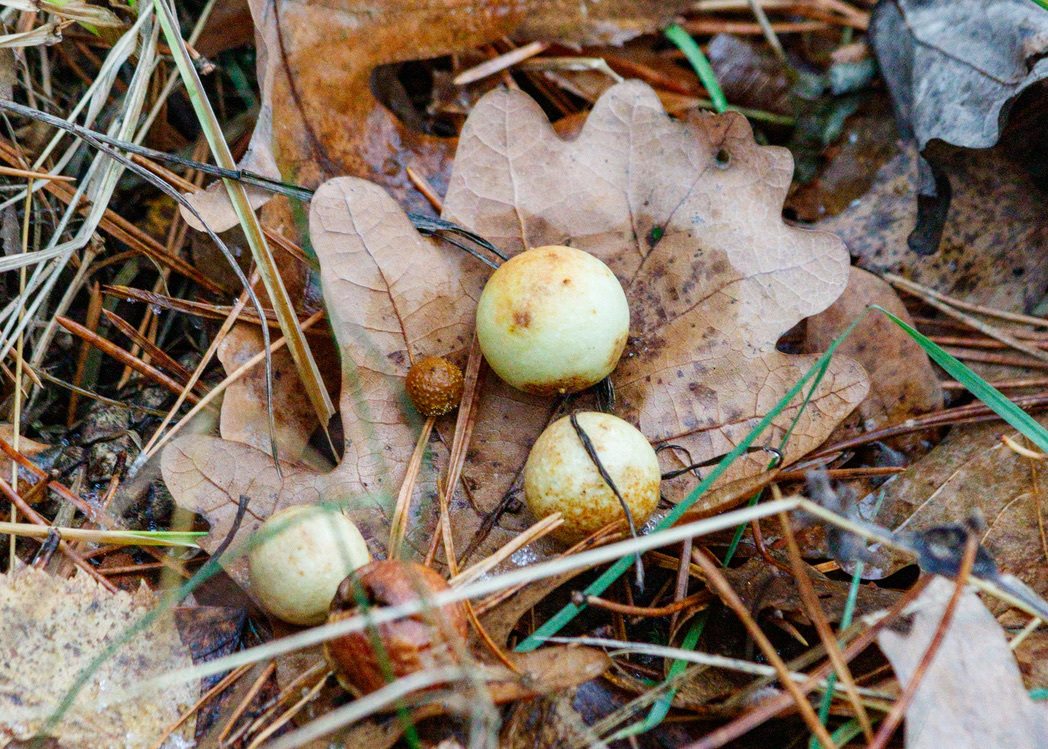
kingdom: Animalia
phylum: Arthropoda
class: Insecta
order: Hymenoptera
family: Cynipidae
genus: Cynips
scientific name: Cynips quercusfolii
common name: Cherry gall
